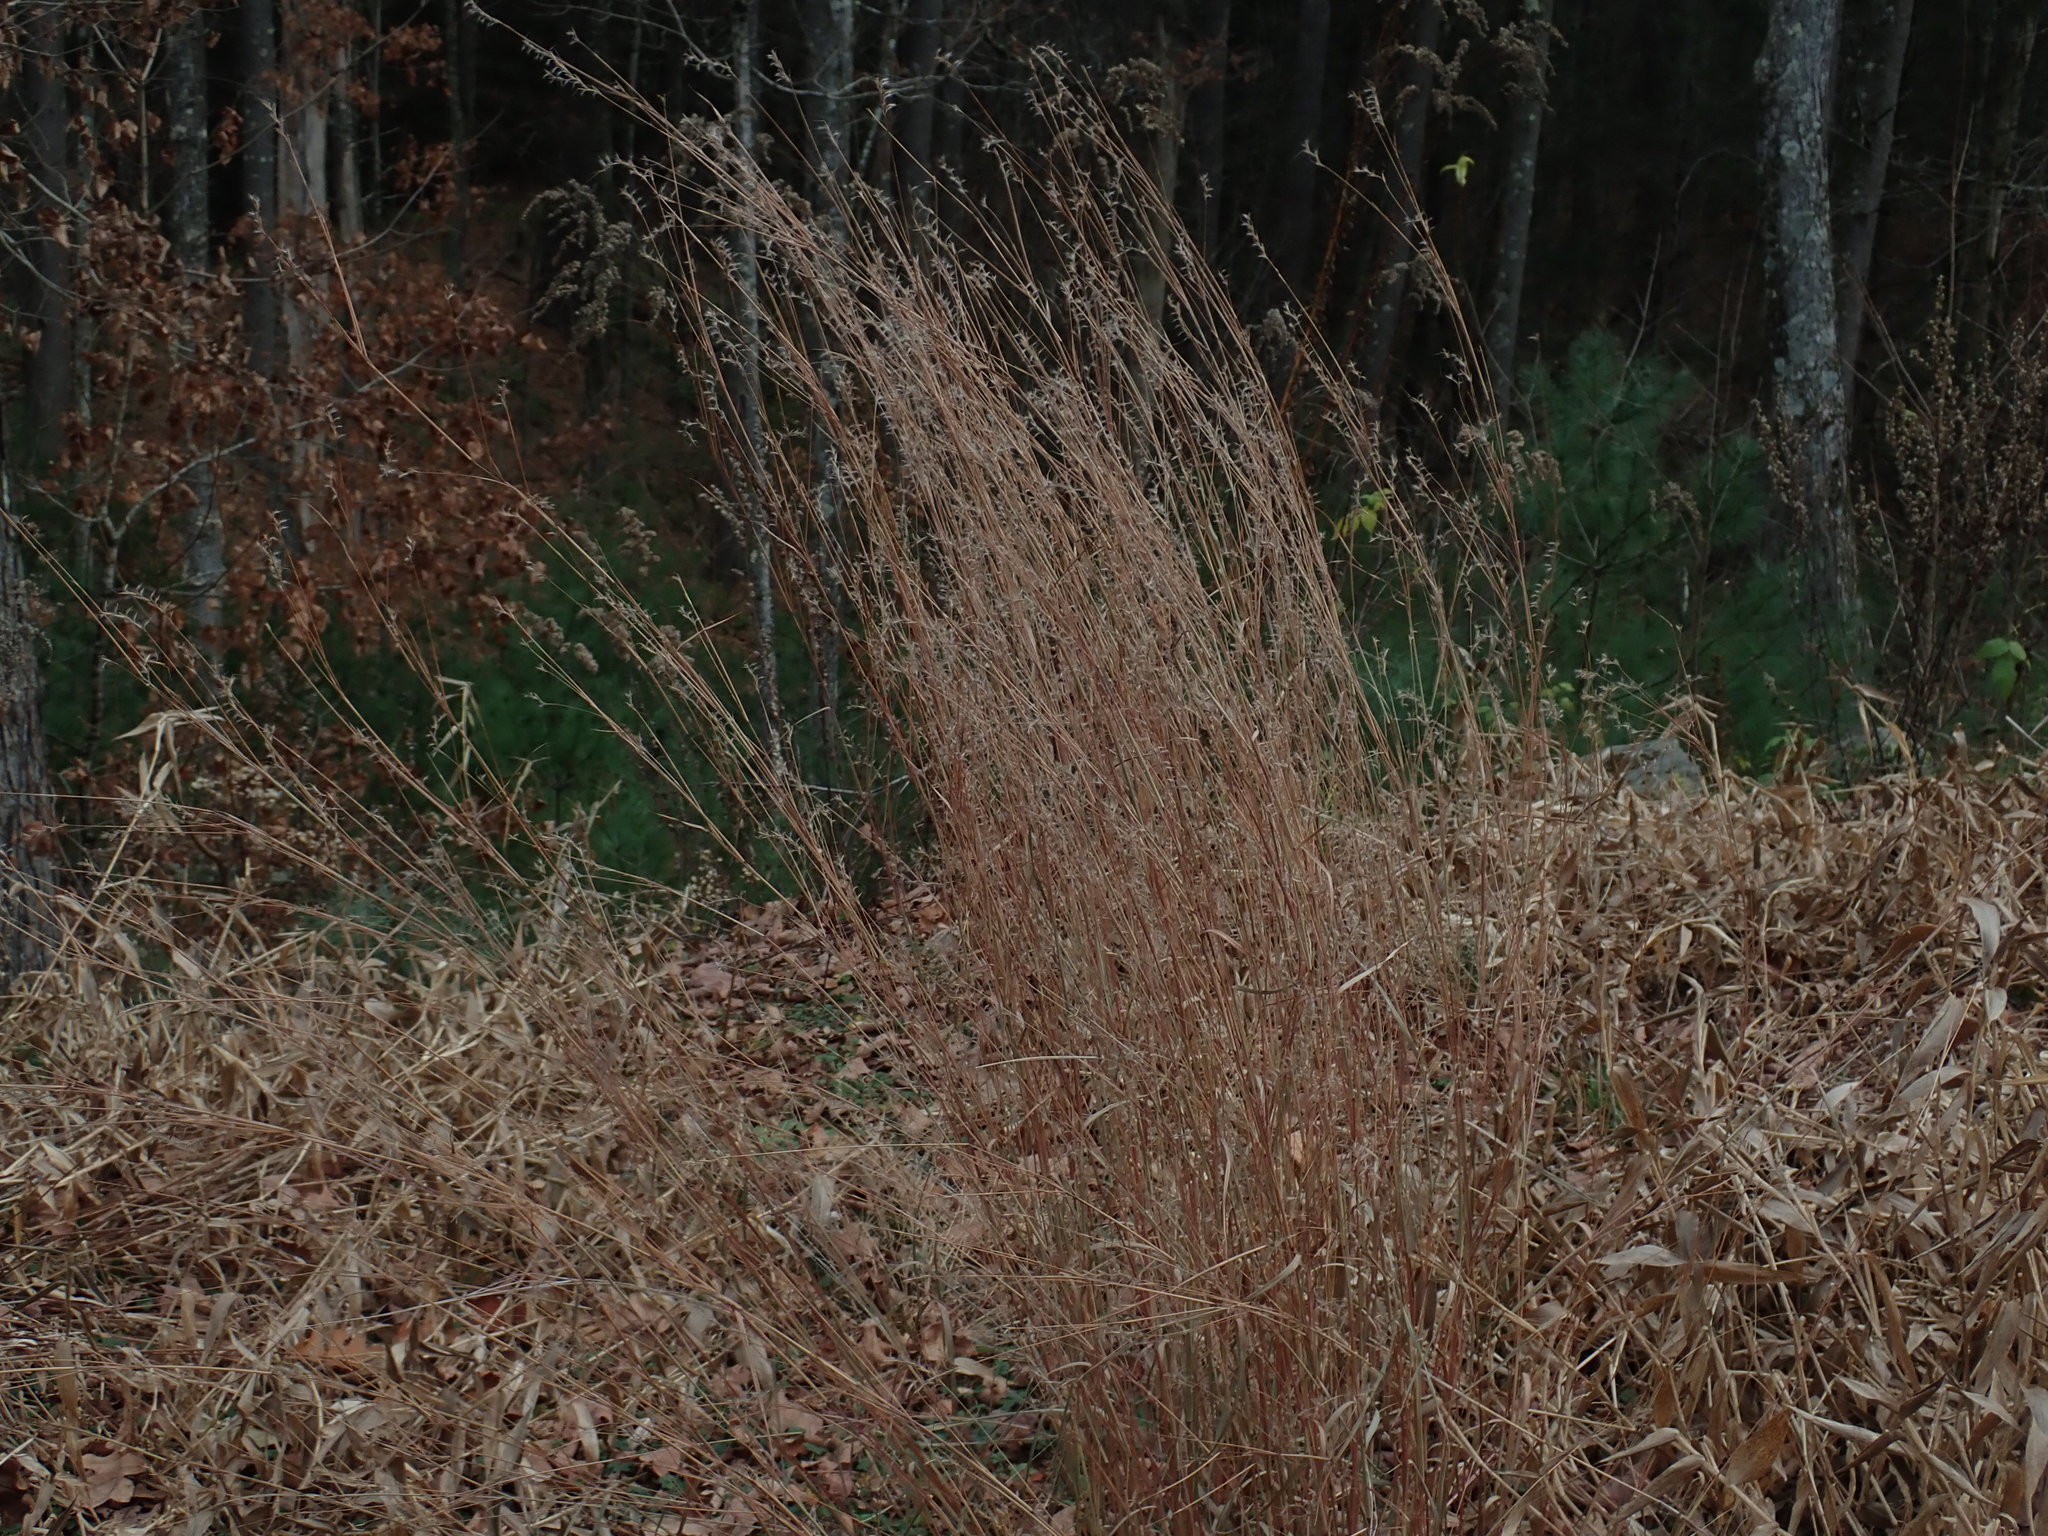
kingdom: Plantae
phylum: Tracheophyta
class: Liliopsida
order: Poales
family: Poaceae
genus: Schizachyrium
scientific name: Schizachyrium scoparium
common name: Little bluestem
